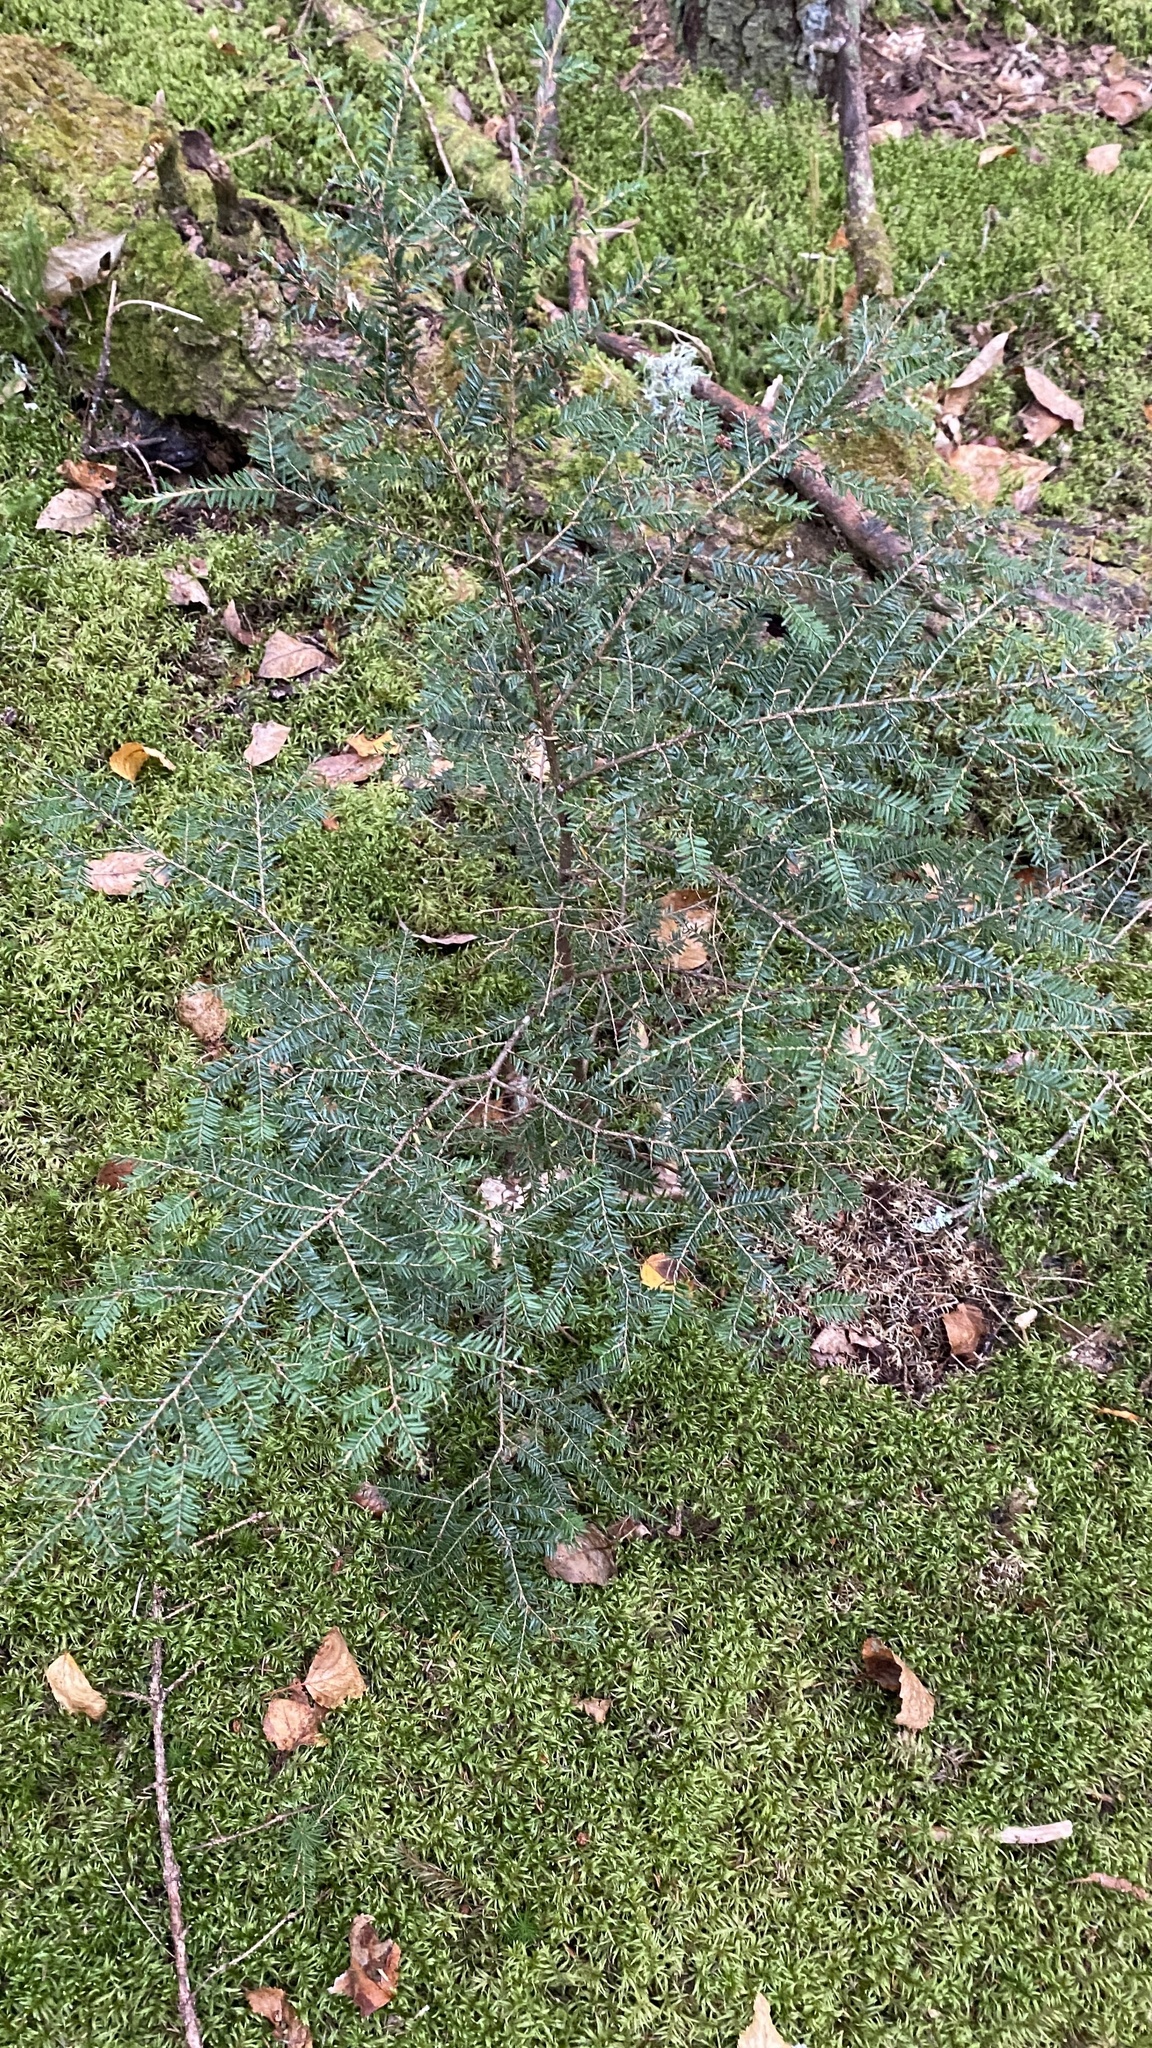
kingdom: Plantae
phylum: Tracheophyta
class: Pinopsida
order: Pinales
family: Pinaceae
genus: Tsuga
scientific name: Tsuga canadensis
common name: Eastern hemlock
